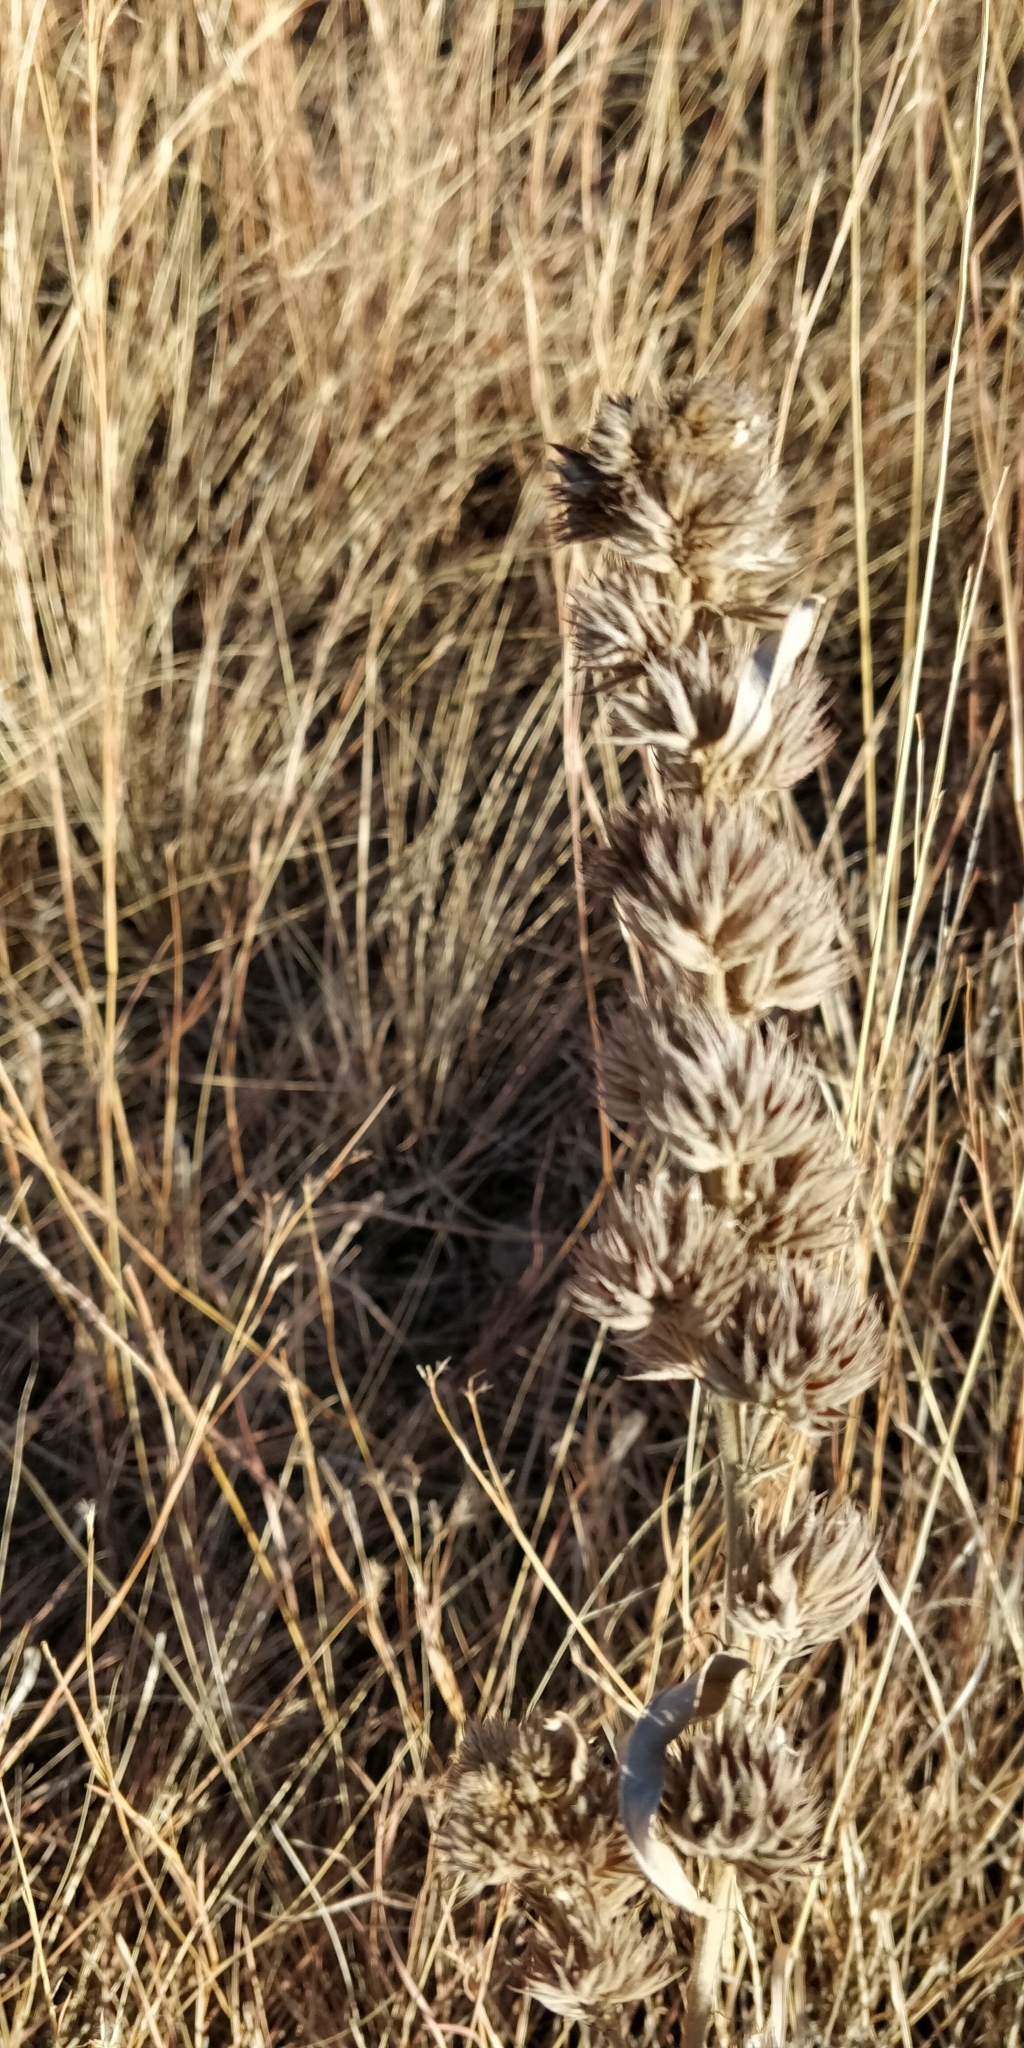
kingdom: Plantae
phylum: Tracheophyta
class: Magnoliopsida
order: Fabales
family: Fabaceae
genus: Lespedeza
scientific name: Lespedeza capitata
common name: Dusty clover
